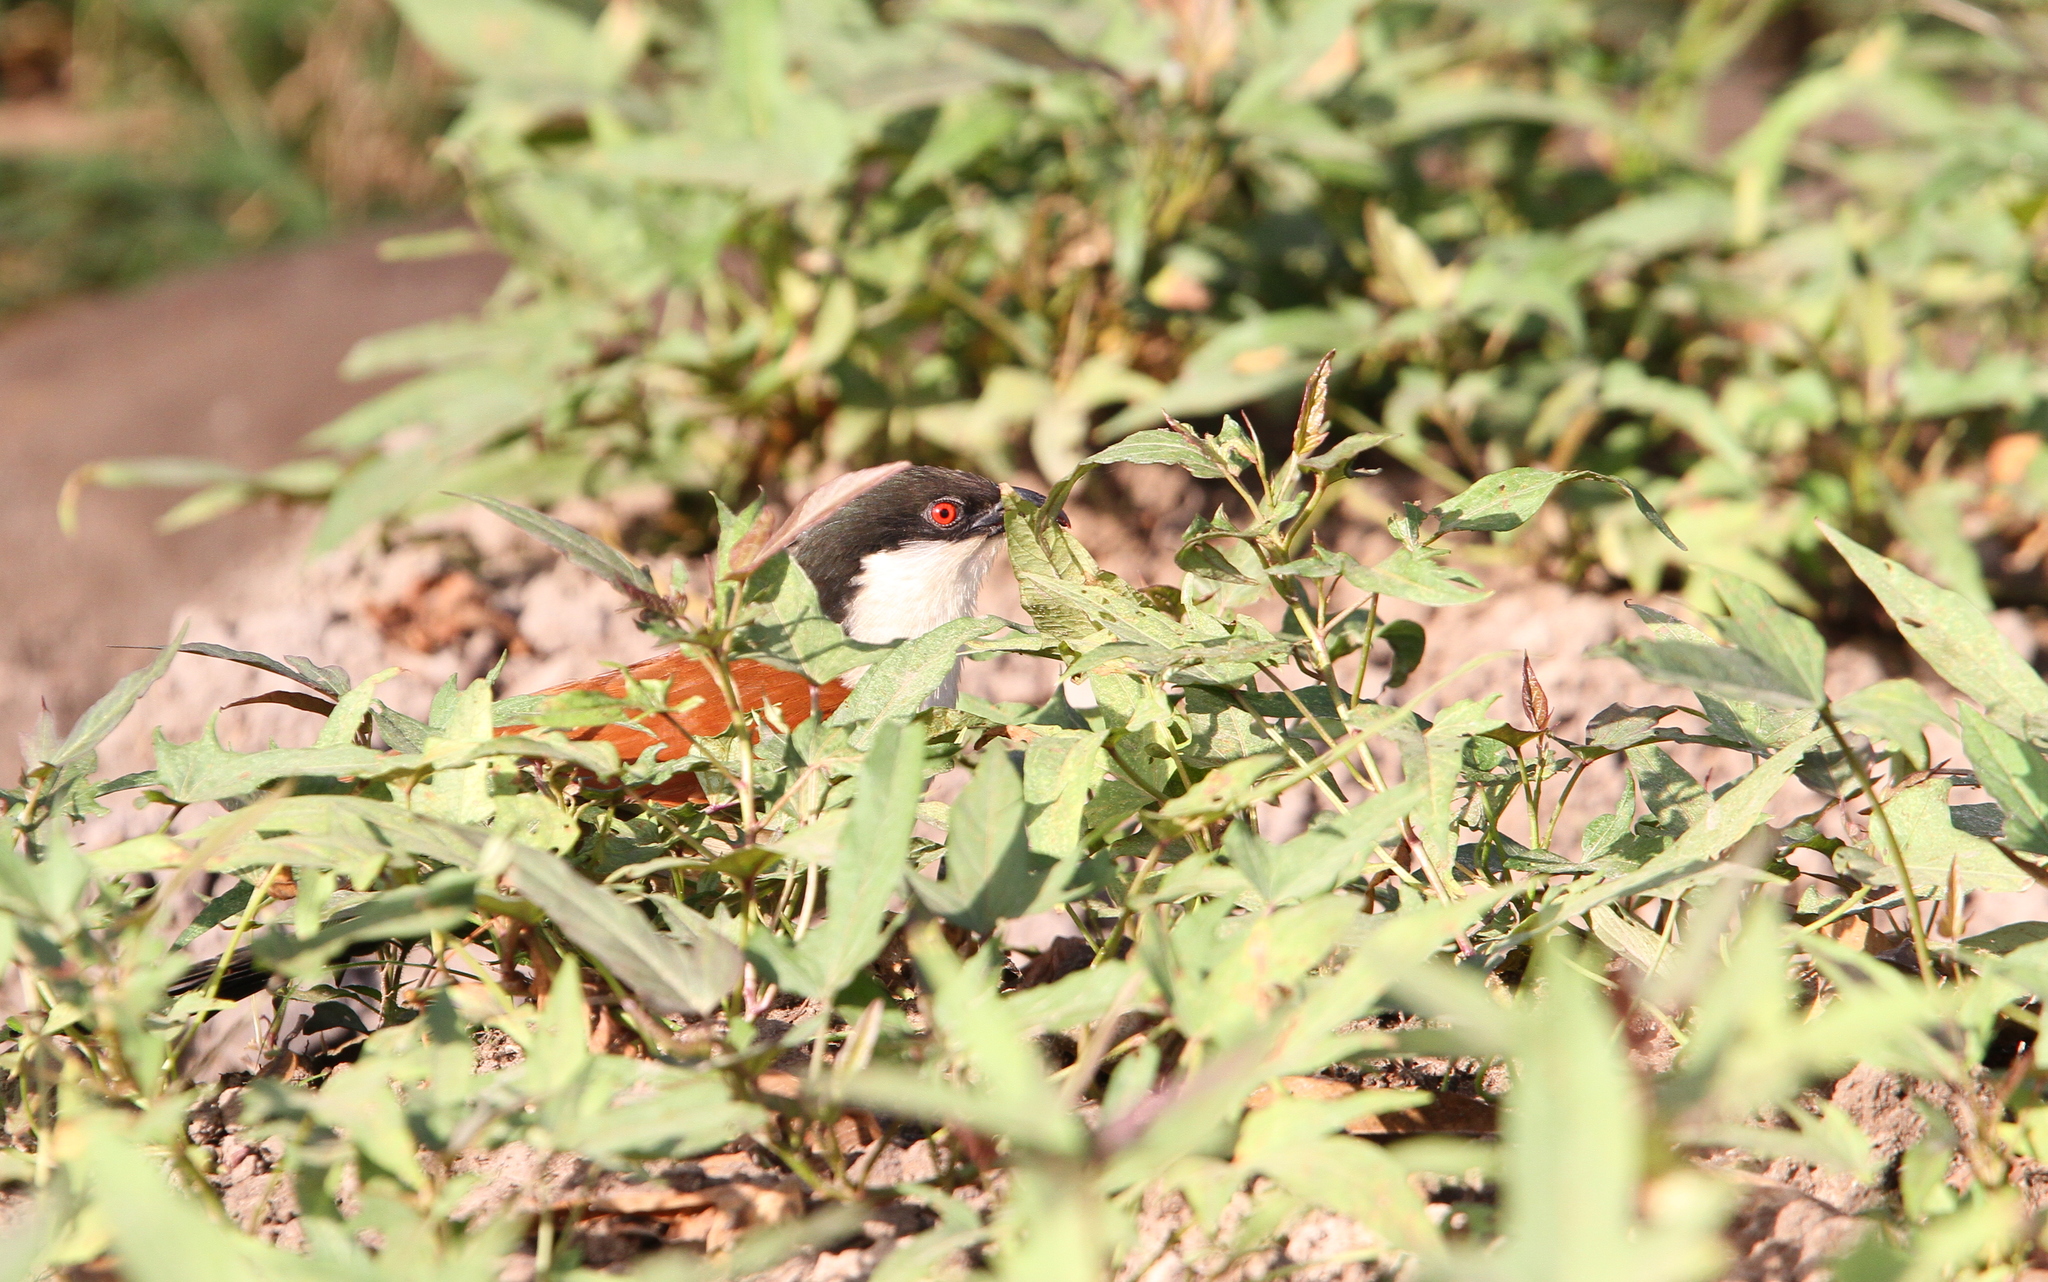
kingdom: Animalia
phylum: Chordata
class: Aves
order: Cuculiformes
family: Cuculidae
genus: Centropus
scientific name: Centropus senegalensis
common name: Senegal coucal
